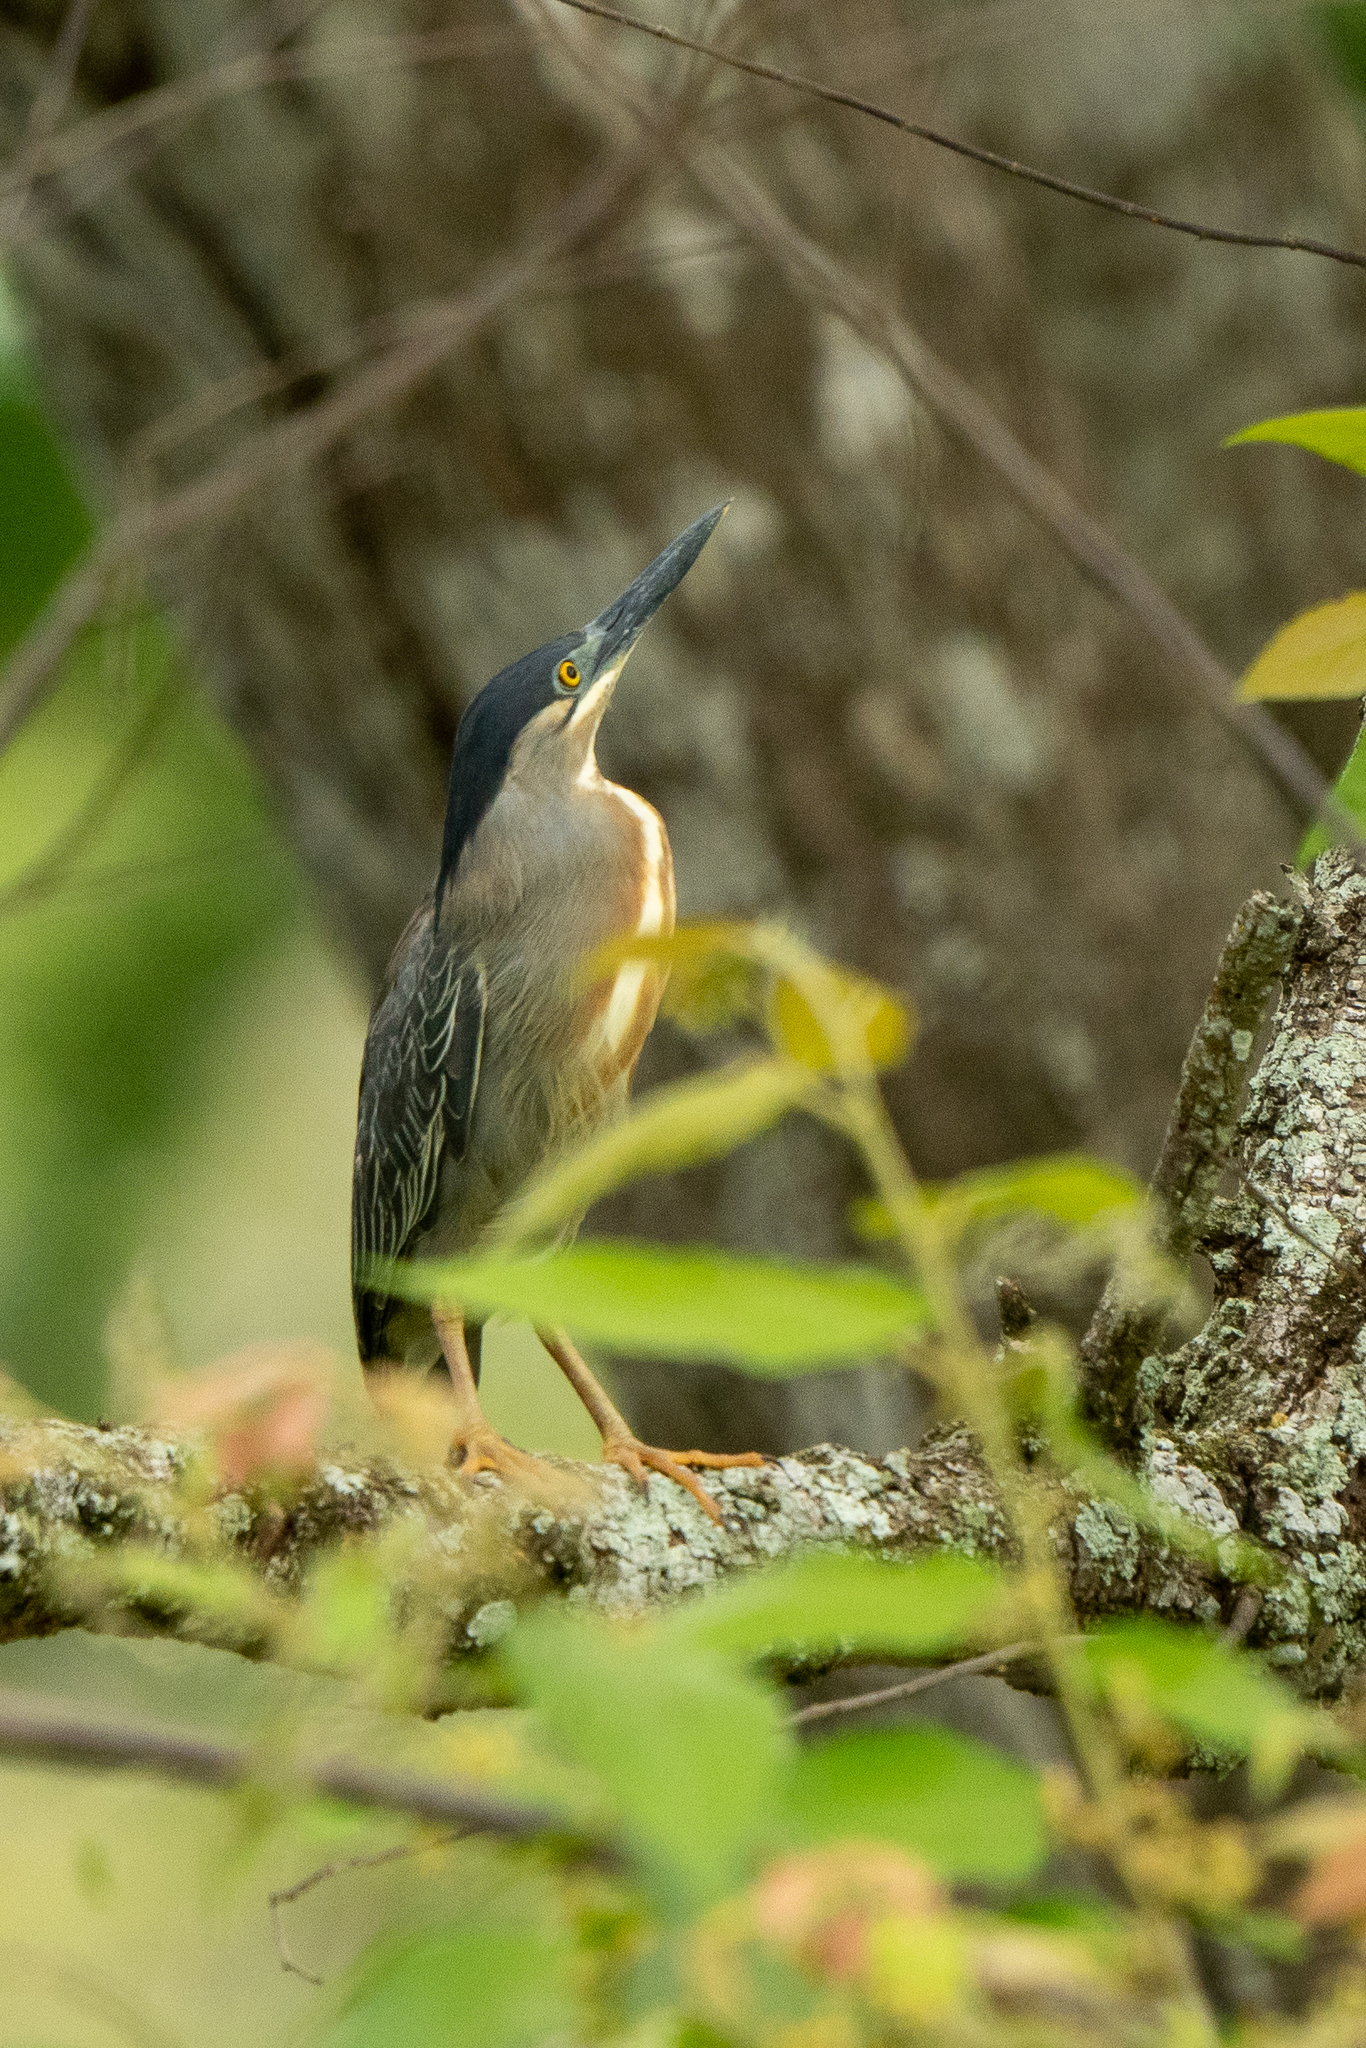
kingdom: Animalia
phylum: Chordata
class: Aves
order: Pelecaniformes
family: Ardeidae
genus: Butorides
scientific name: Butorides striata
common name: Striated heron
